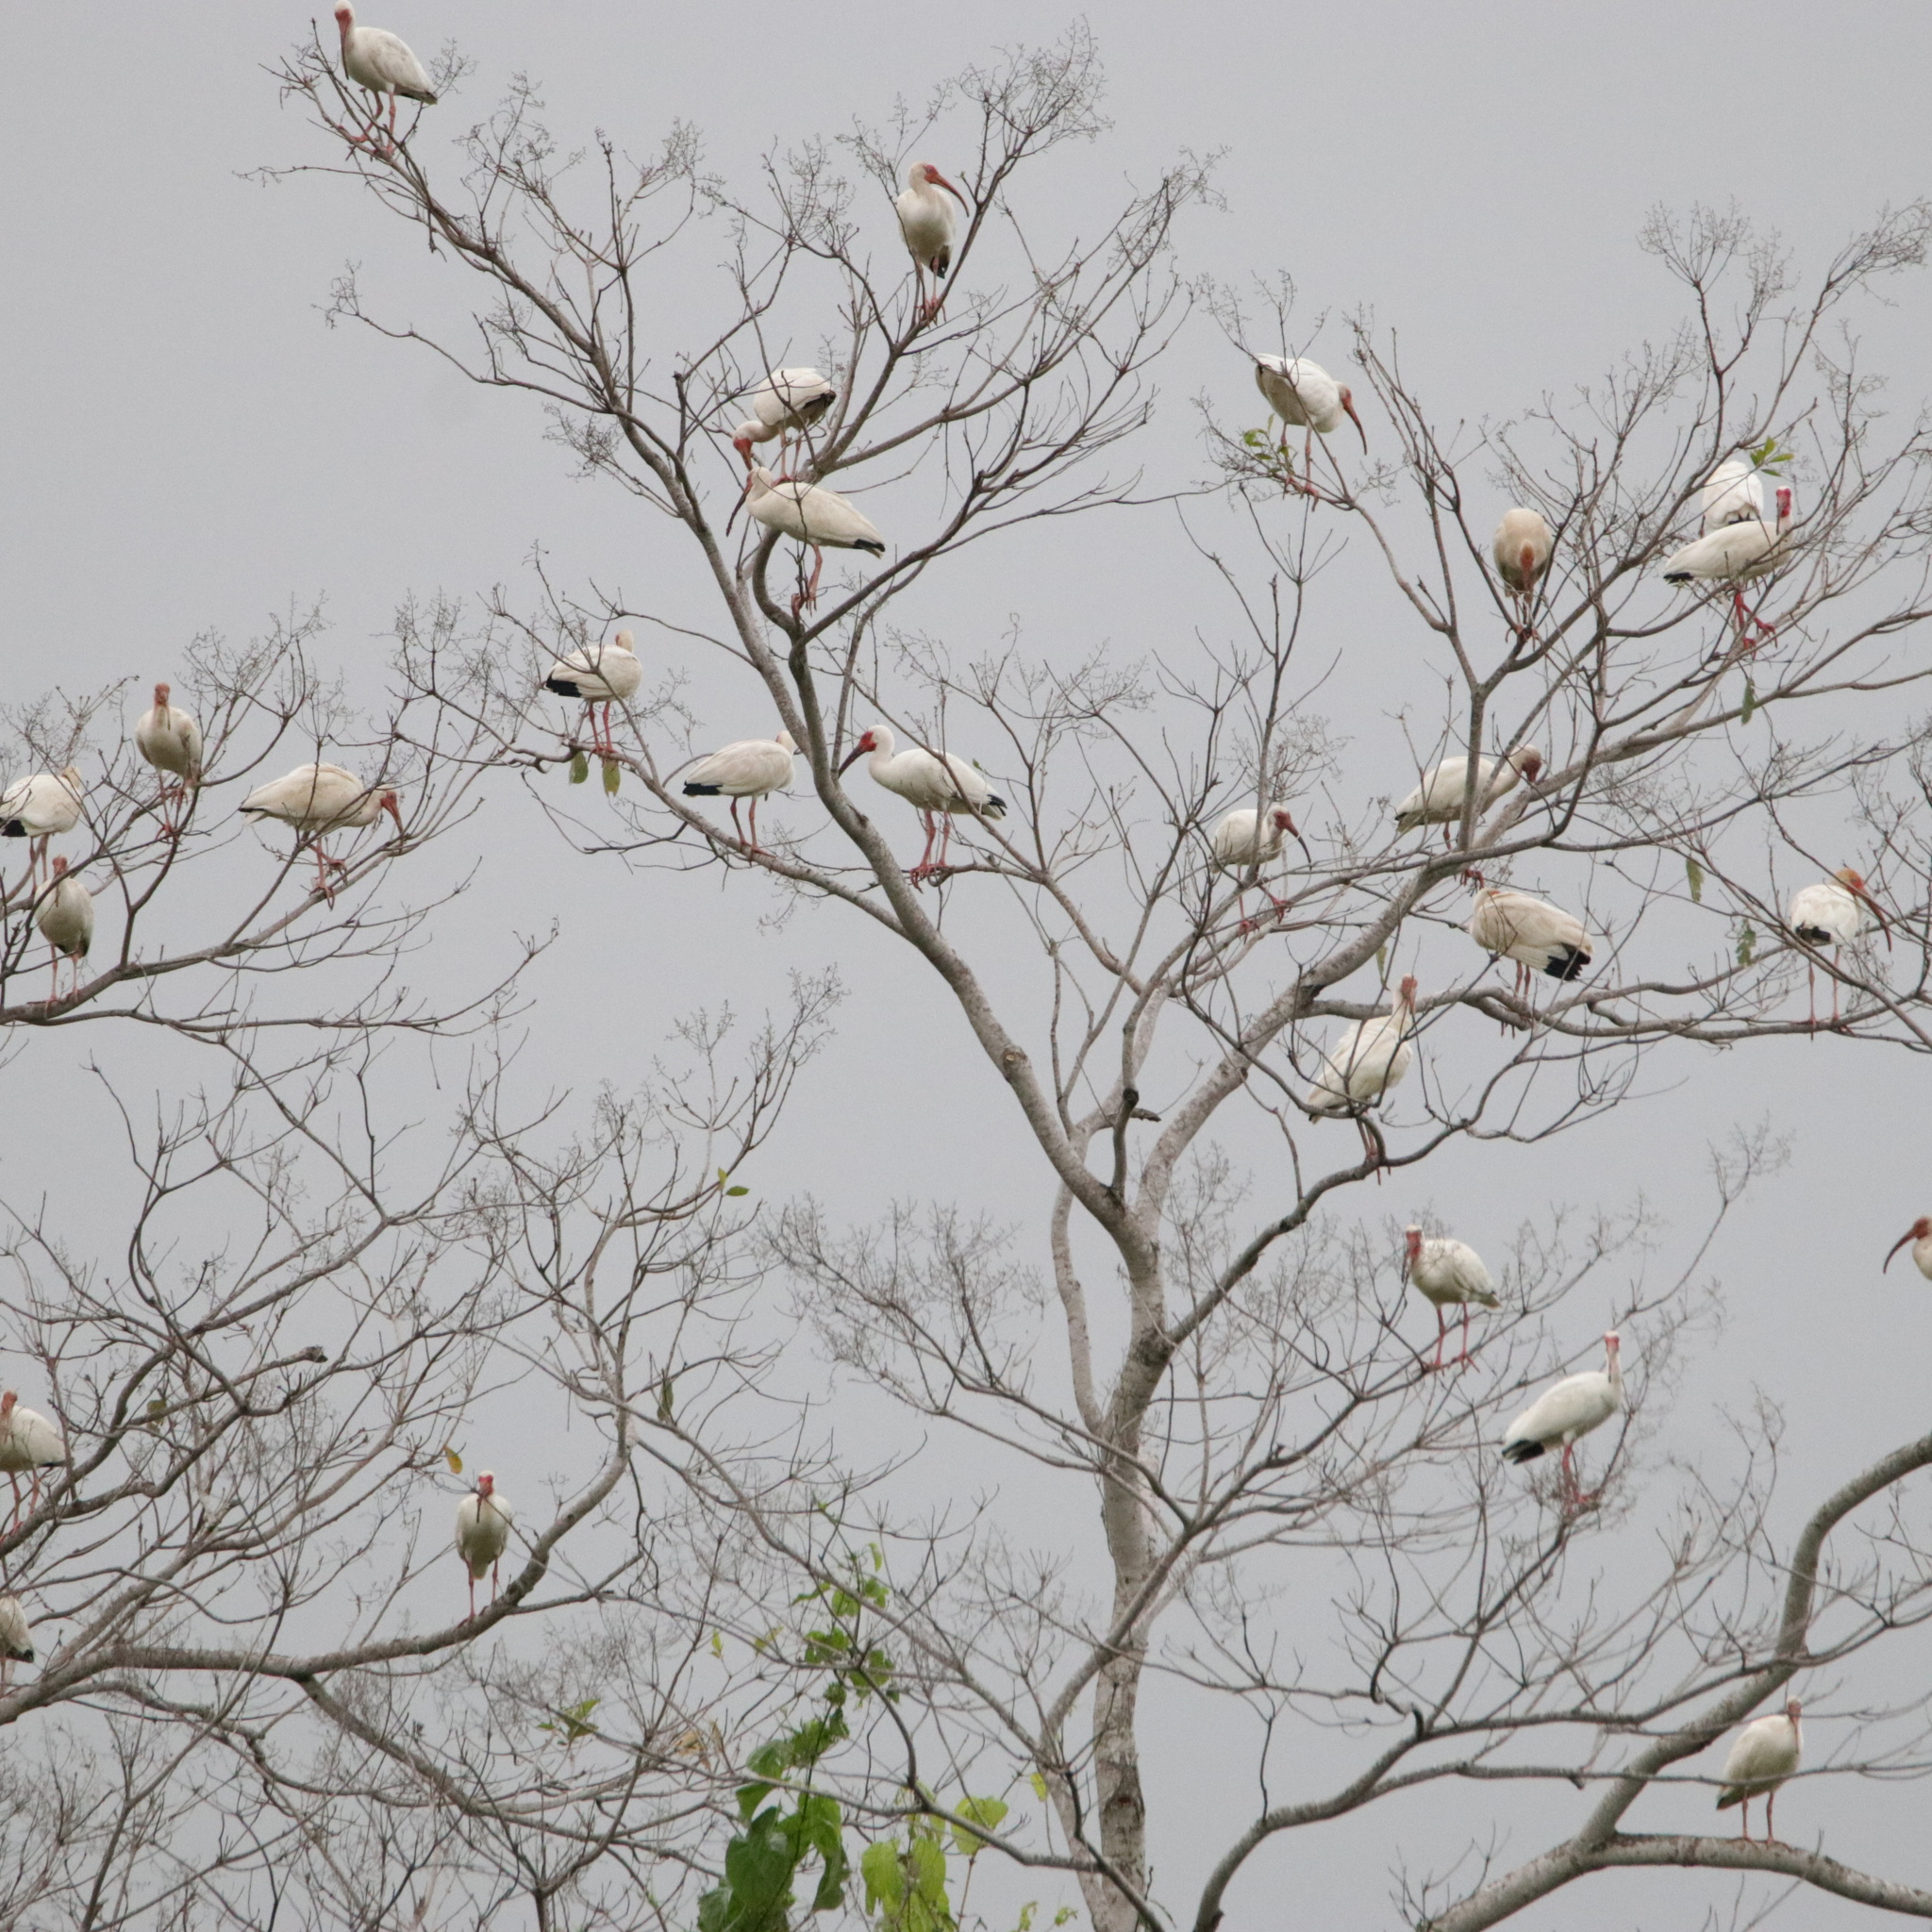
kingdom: Animalia
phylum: Chordata
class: Aves
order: Pelecaniformes
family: Threskiornithidae
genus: Eudocimus
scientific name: Eudocimus albus
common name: White ibis
